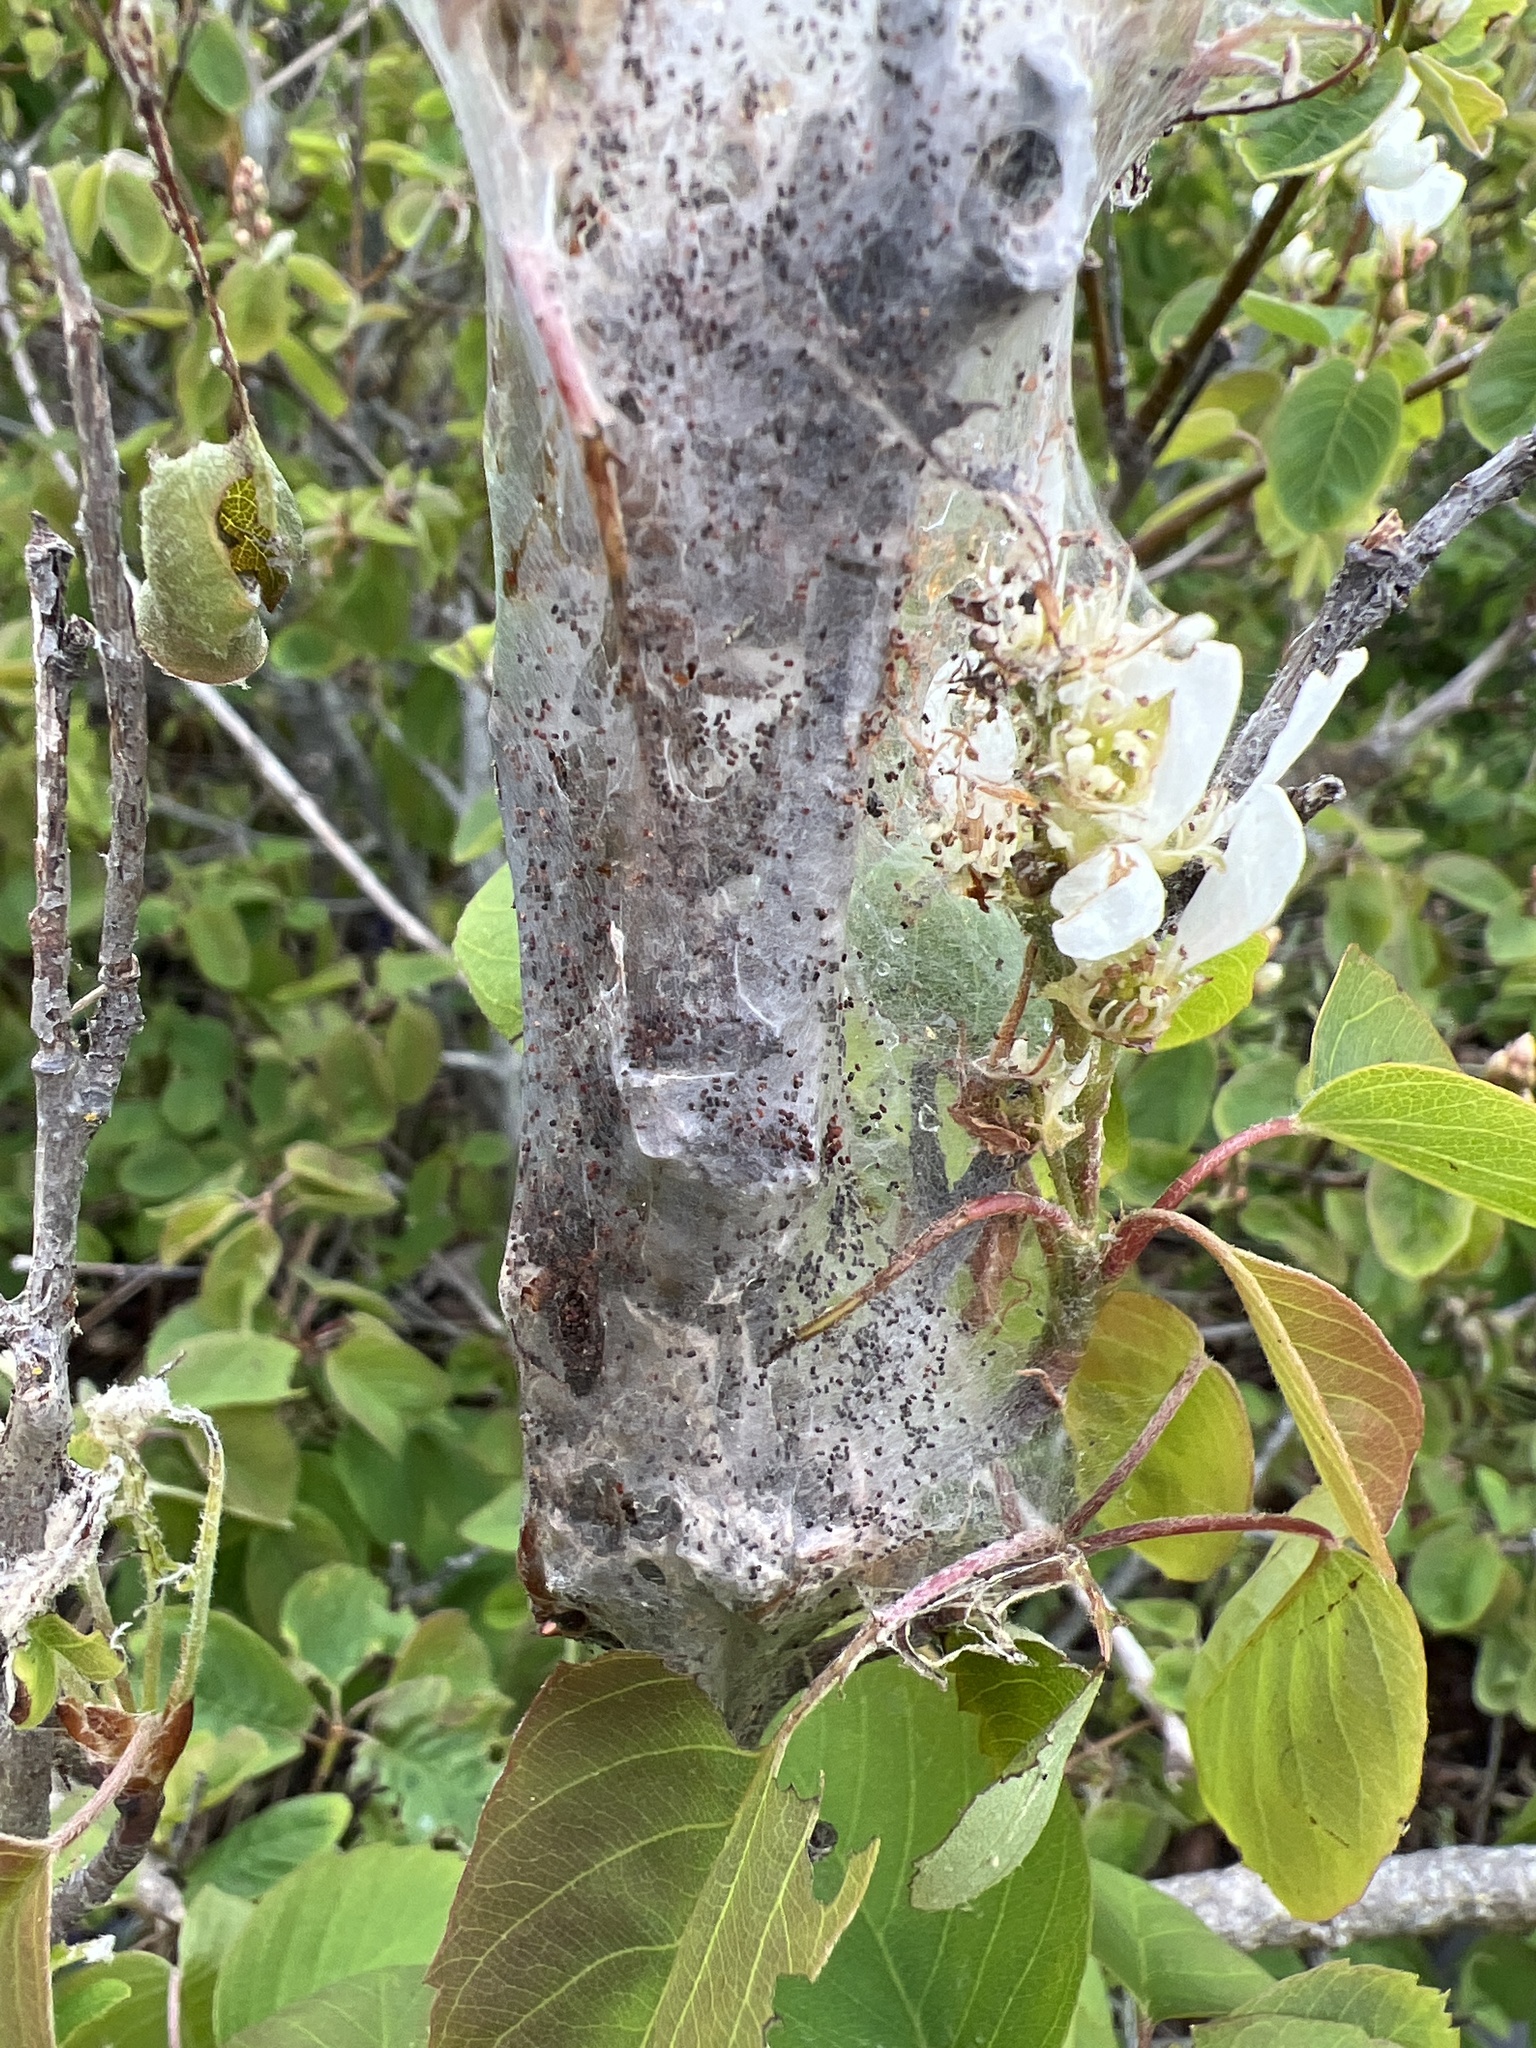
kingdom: Animalia
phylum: Arthropoda
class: Insecta
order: Lepidoptera
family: Lasiocampidae
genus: Malacosoma
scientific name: Malacosoma californica
